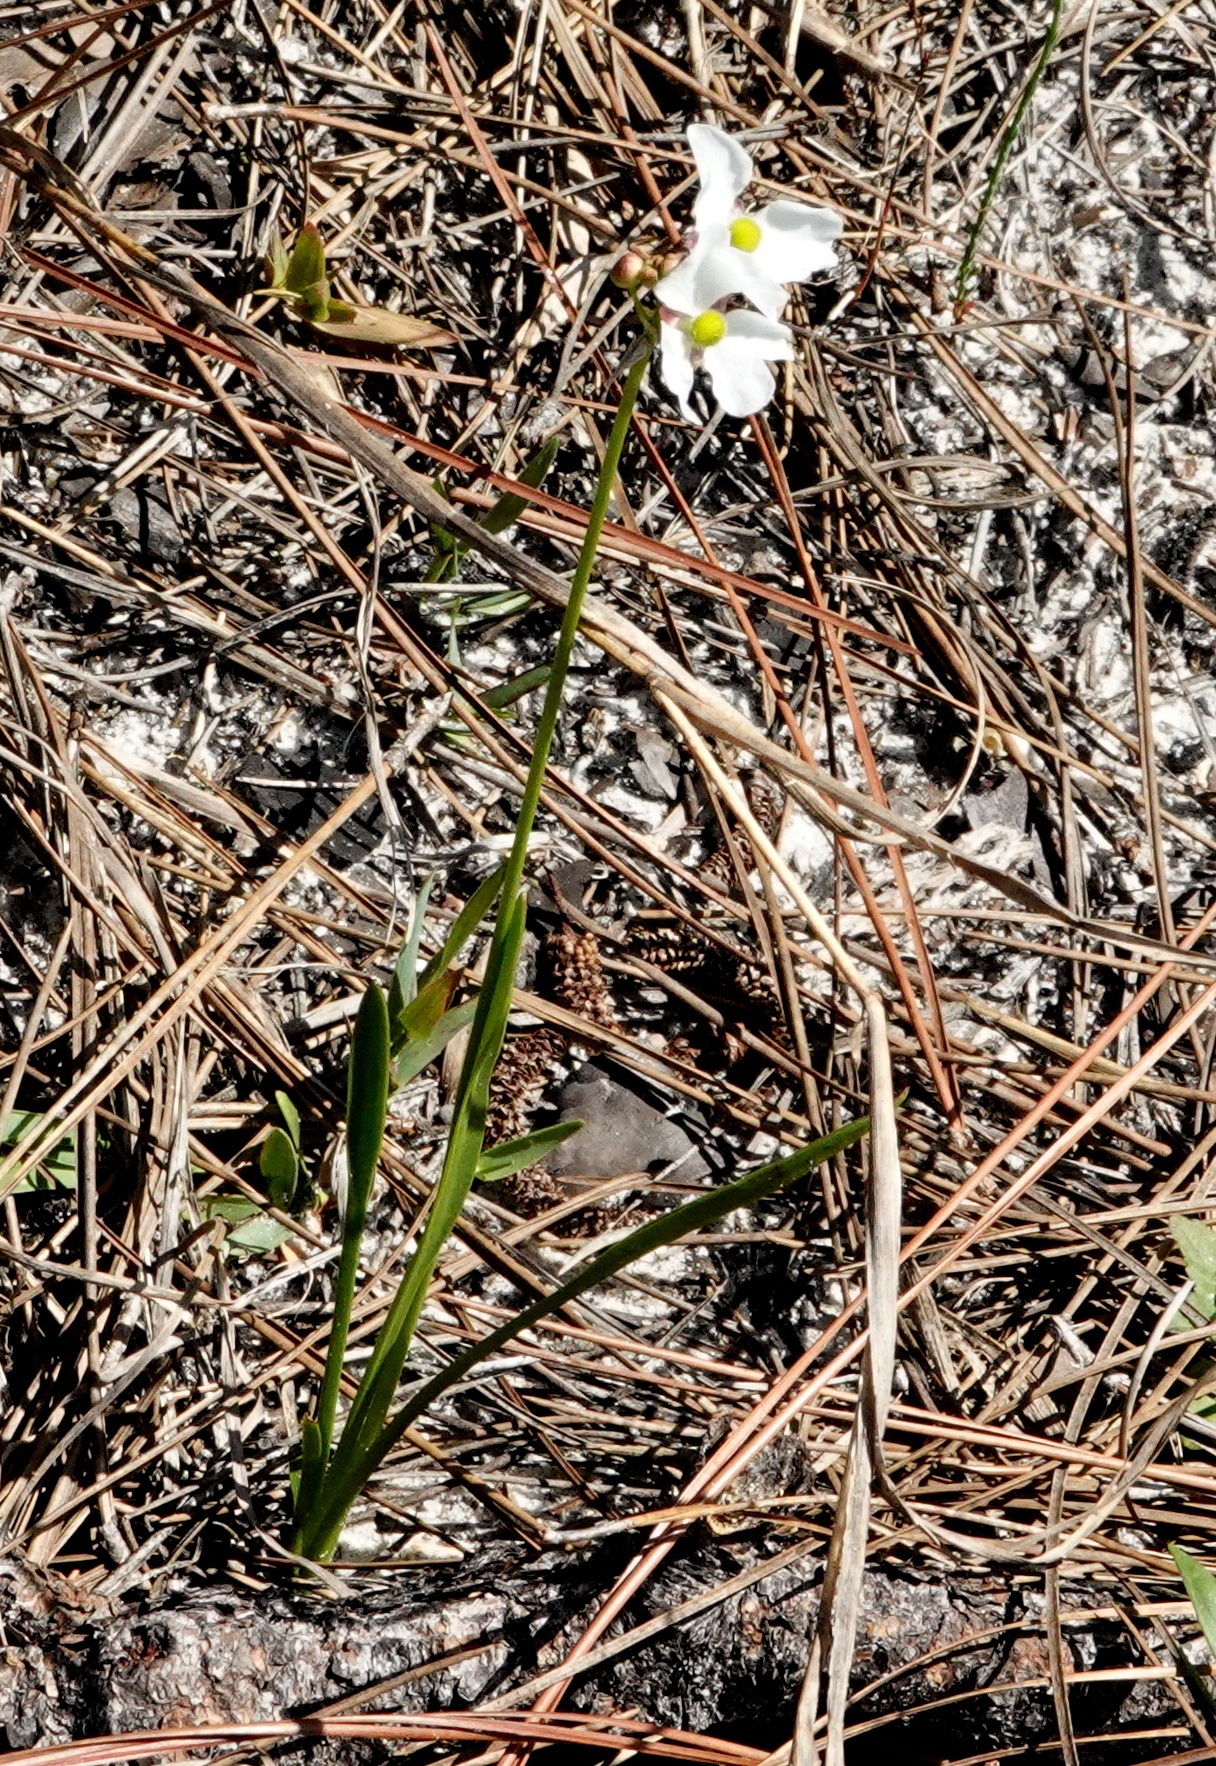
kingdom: Plantae
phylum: Tracheophyta
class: Liliopsida
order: Alismatales
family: Alismataceae
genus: Sagittaria
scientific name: Sagittaria graminea
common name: Grass-leaved arrowhead
